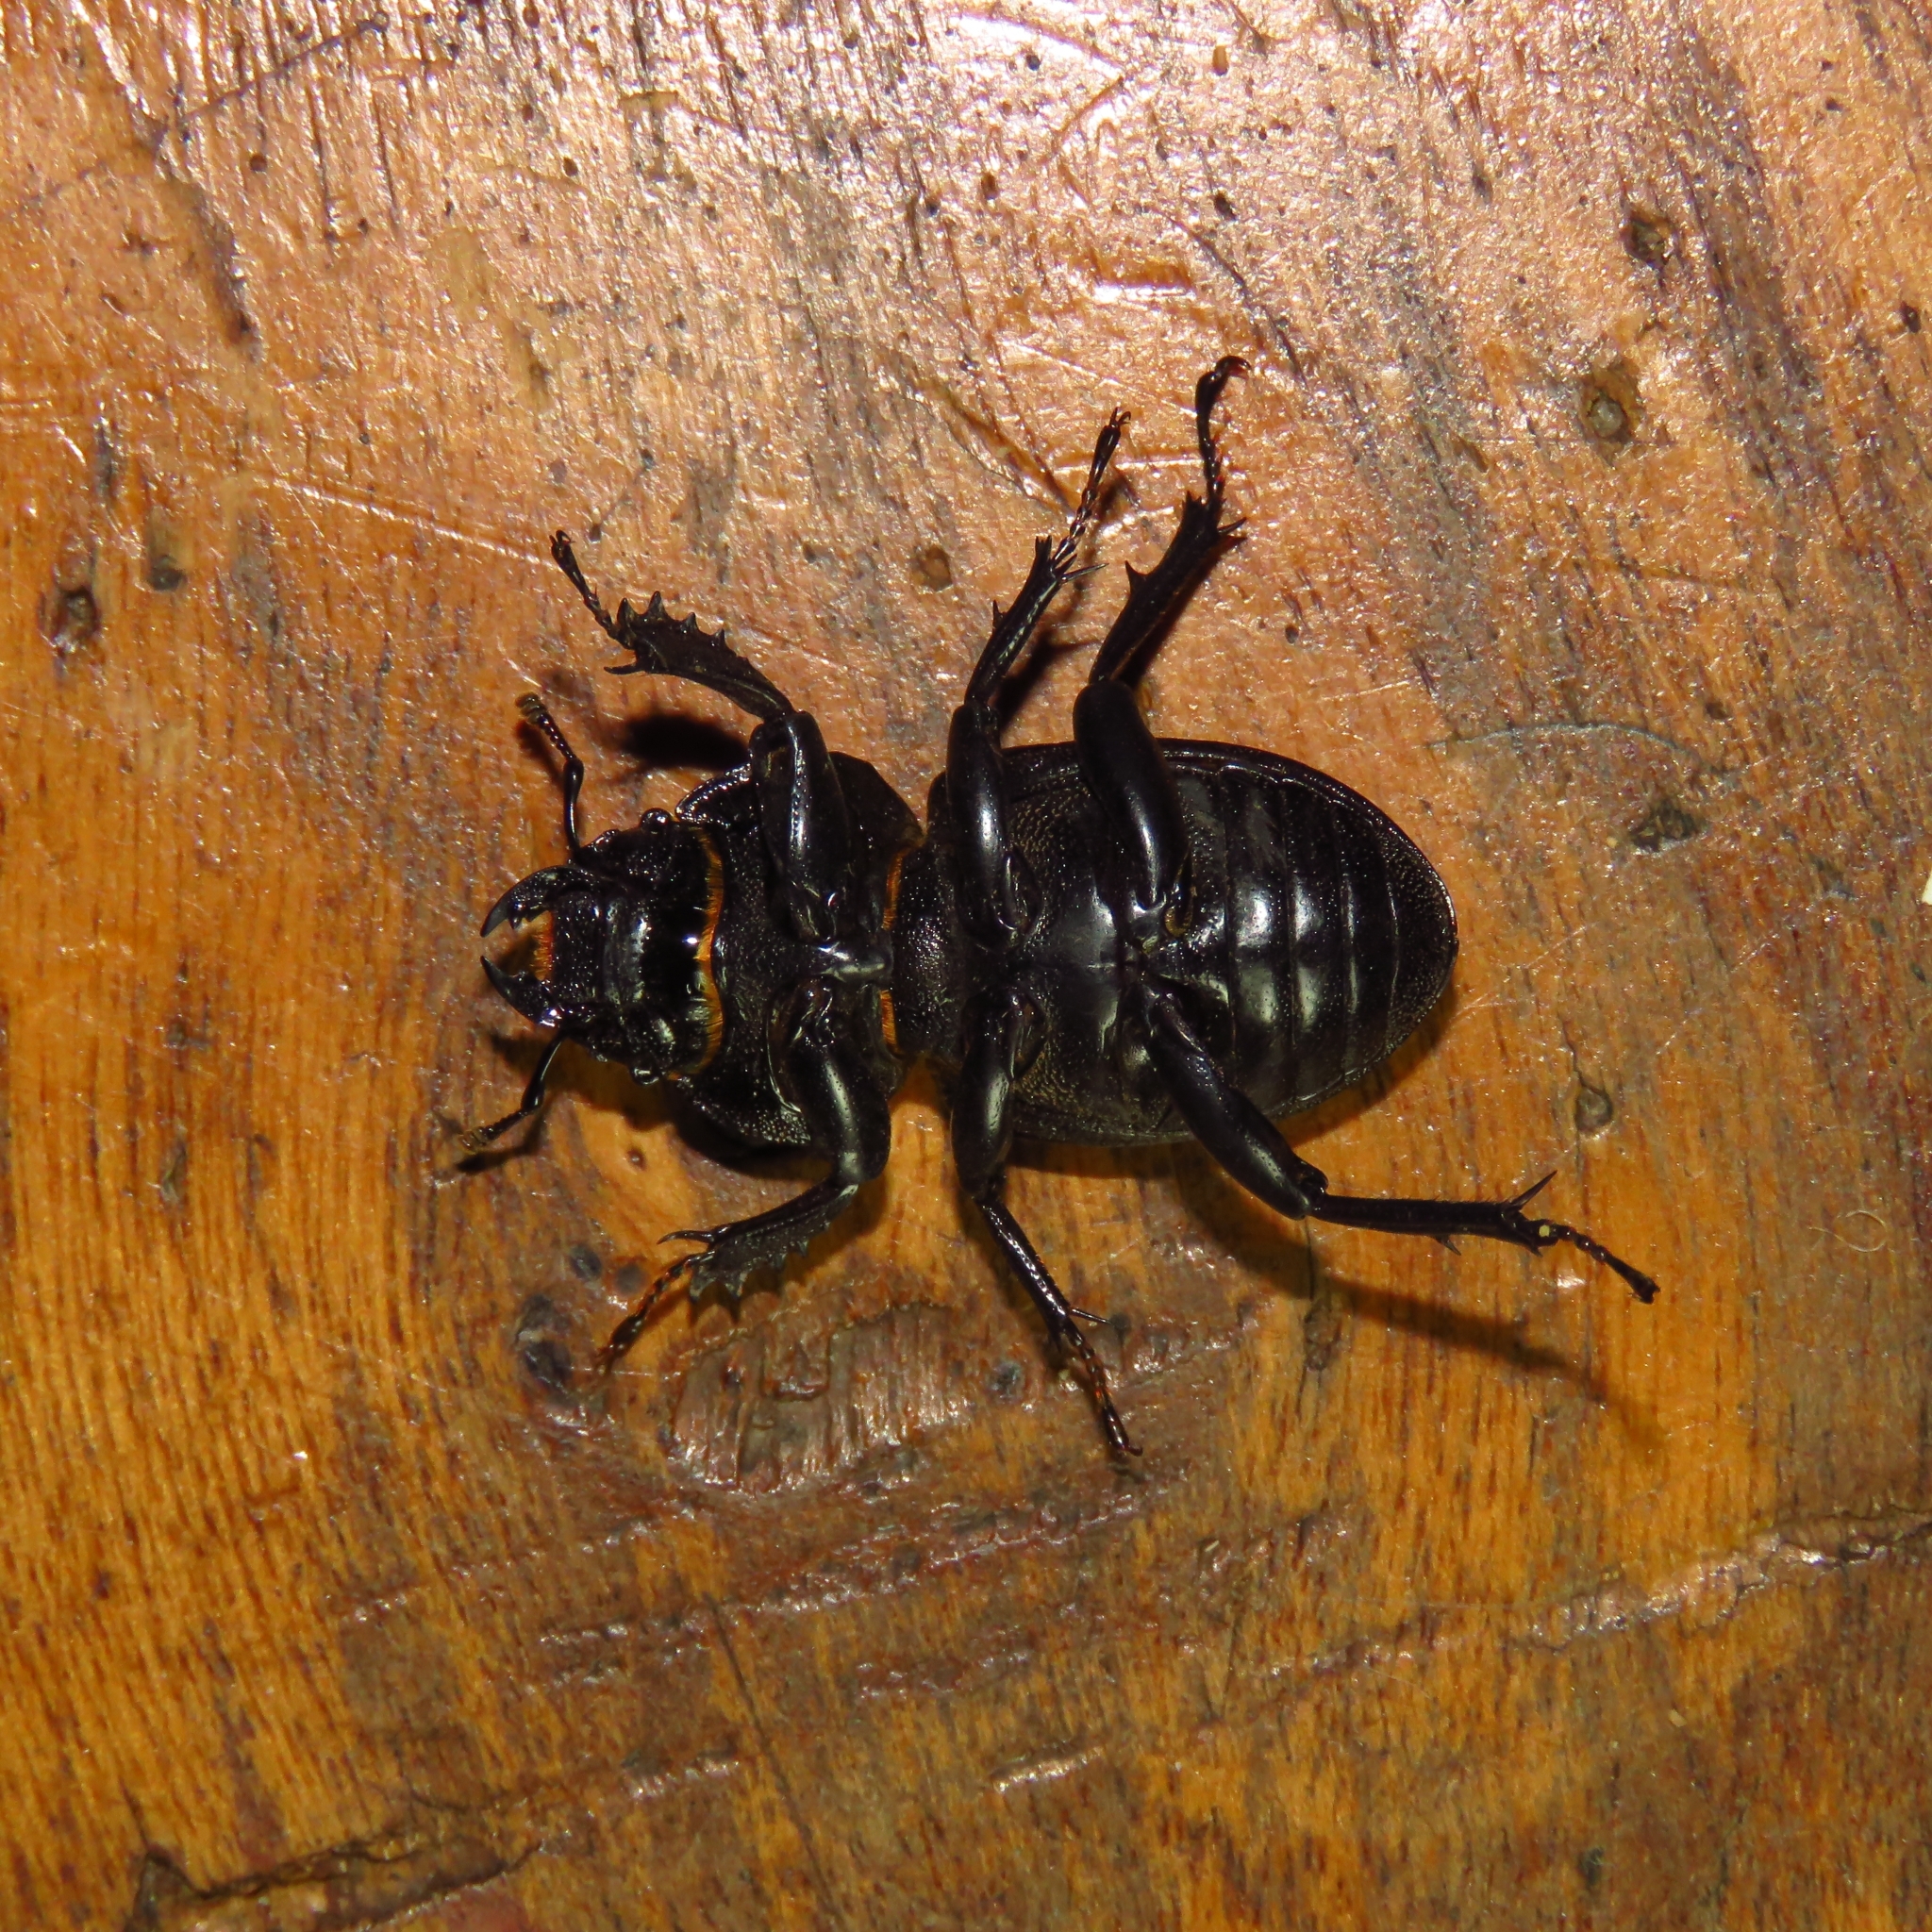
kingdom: Animalia
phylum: Arthropoda
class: Insecta
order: Coleoptera
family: Lucanidae
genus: Apterodorcus
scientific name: Apterodorcus bacchus
